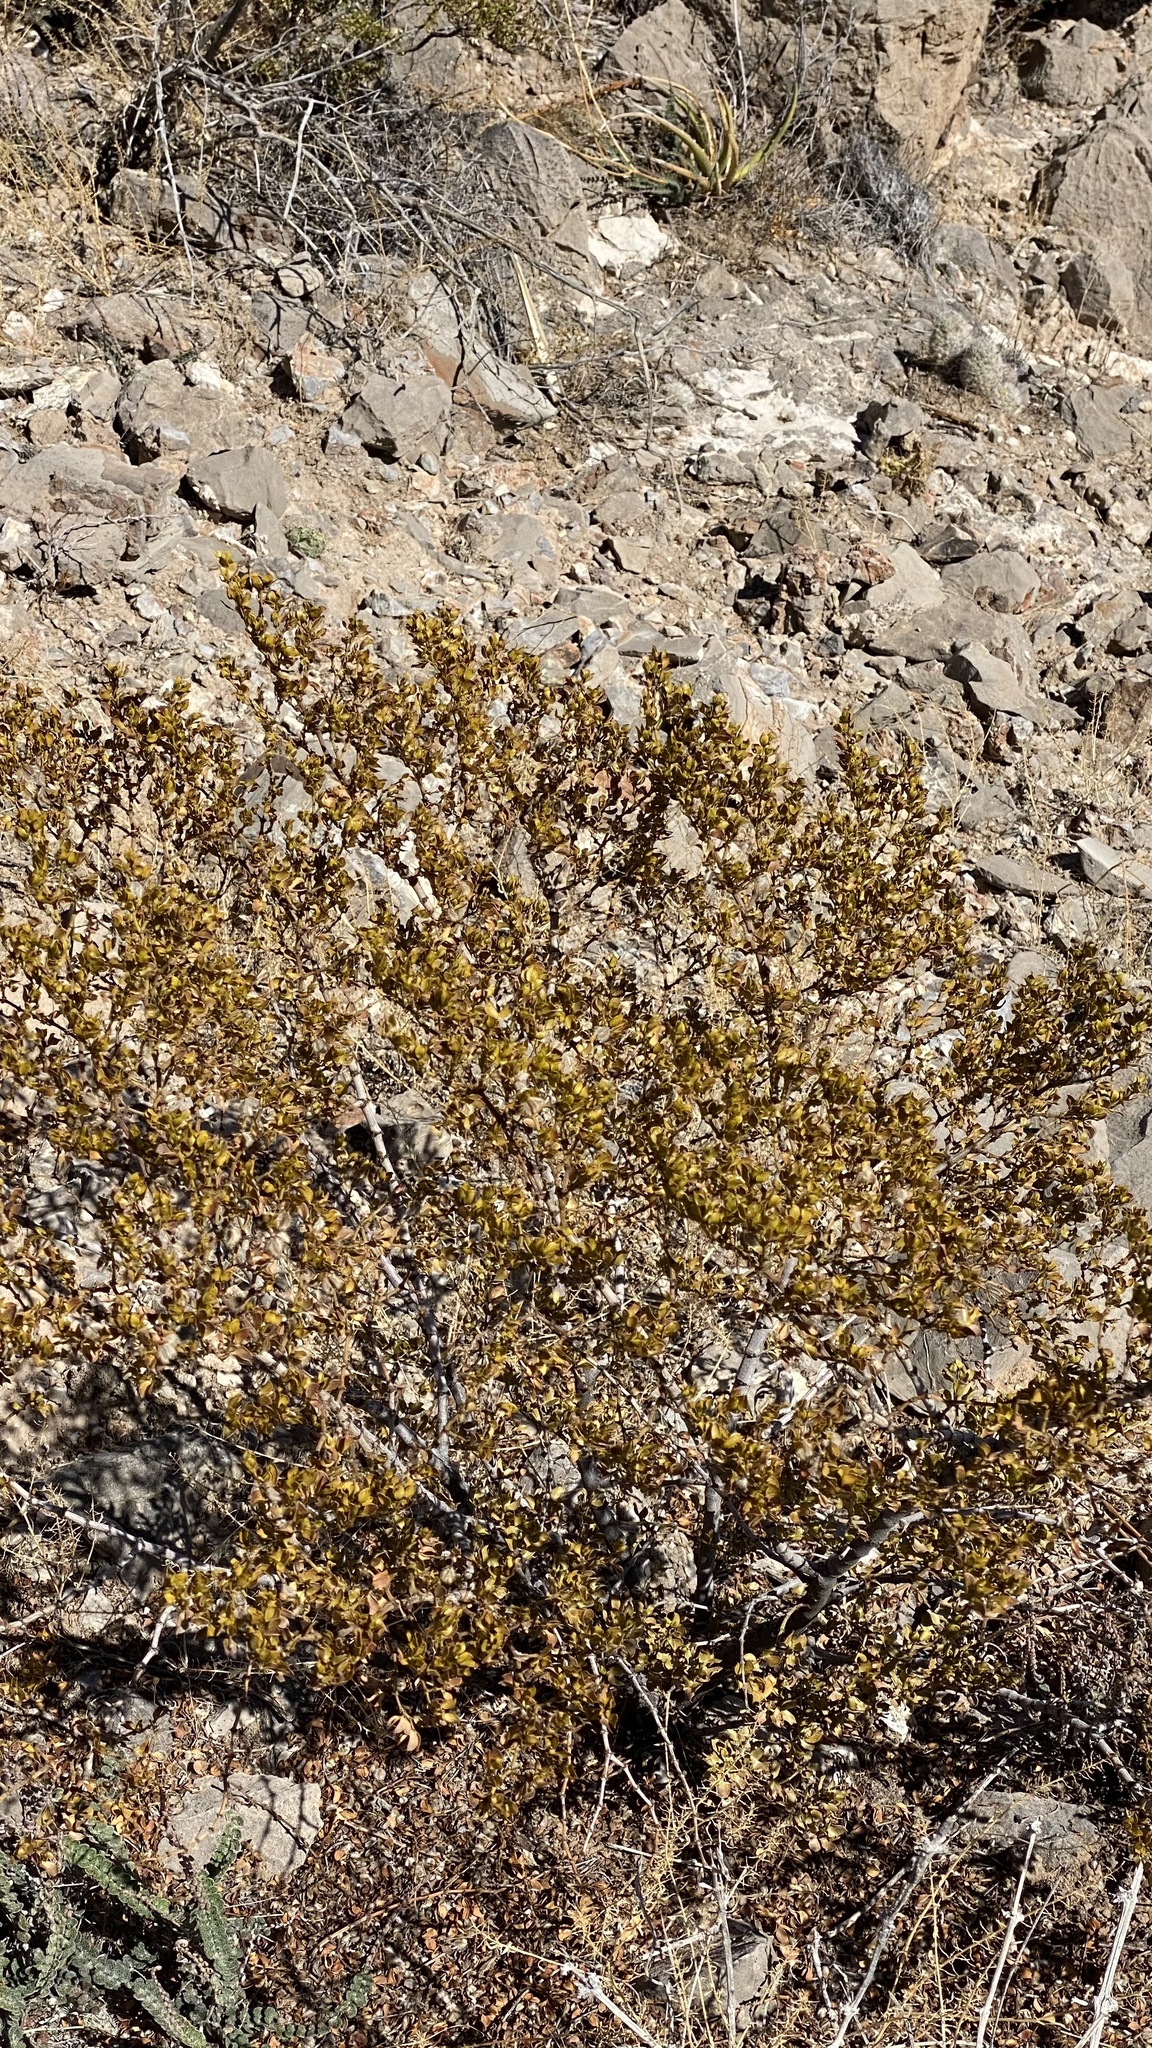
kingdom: Plantae
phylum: Tracheophyta
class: Magnoliopsida
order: Zygophyllales
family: Zygophyllaceae
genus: Larrea
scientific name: Larrea tridentata
